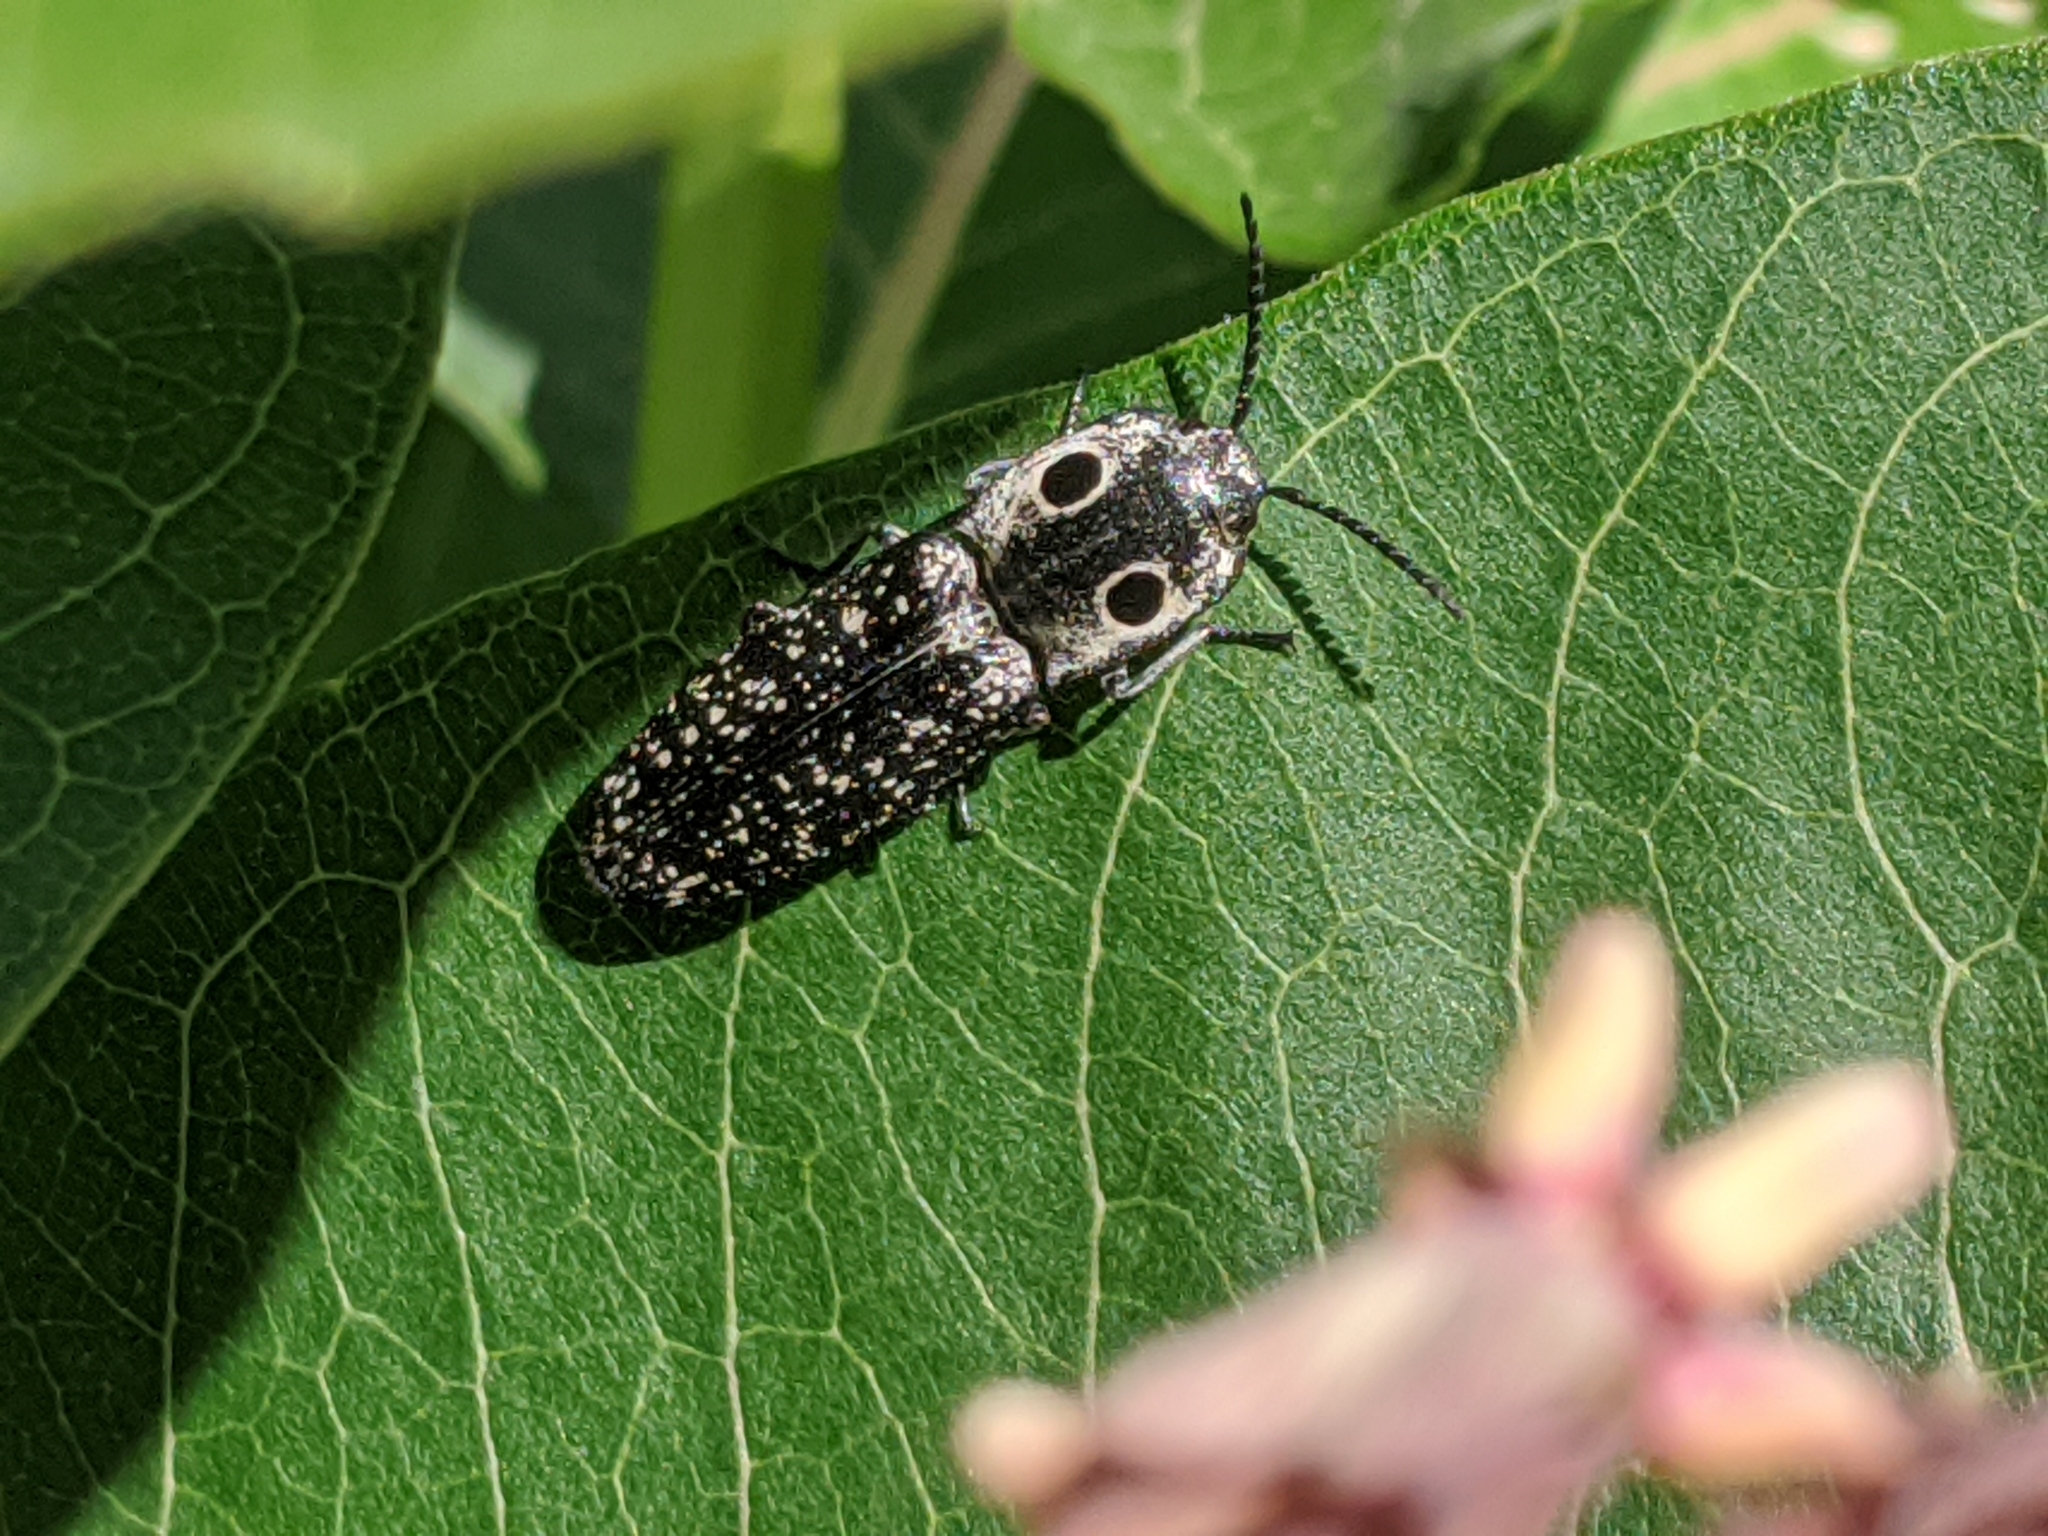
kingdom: Animalia
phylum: Arthropoda
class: Insecta
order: Coleoptera
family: Elateridae
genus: Alaus
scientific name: Alaus oculatus
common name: Eastern eyed click beetle
